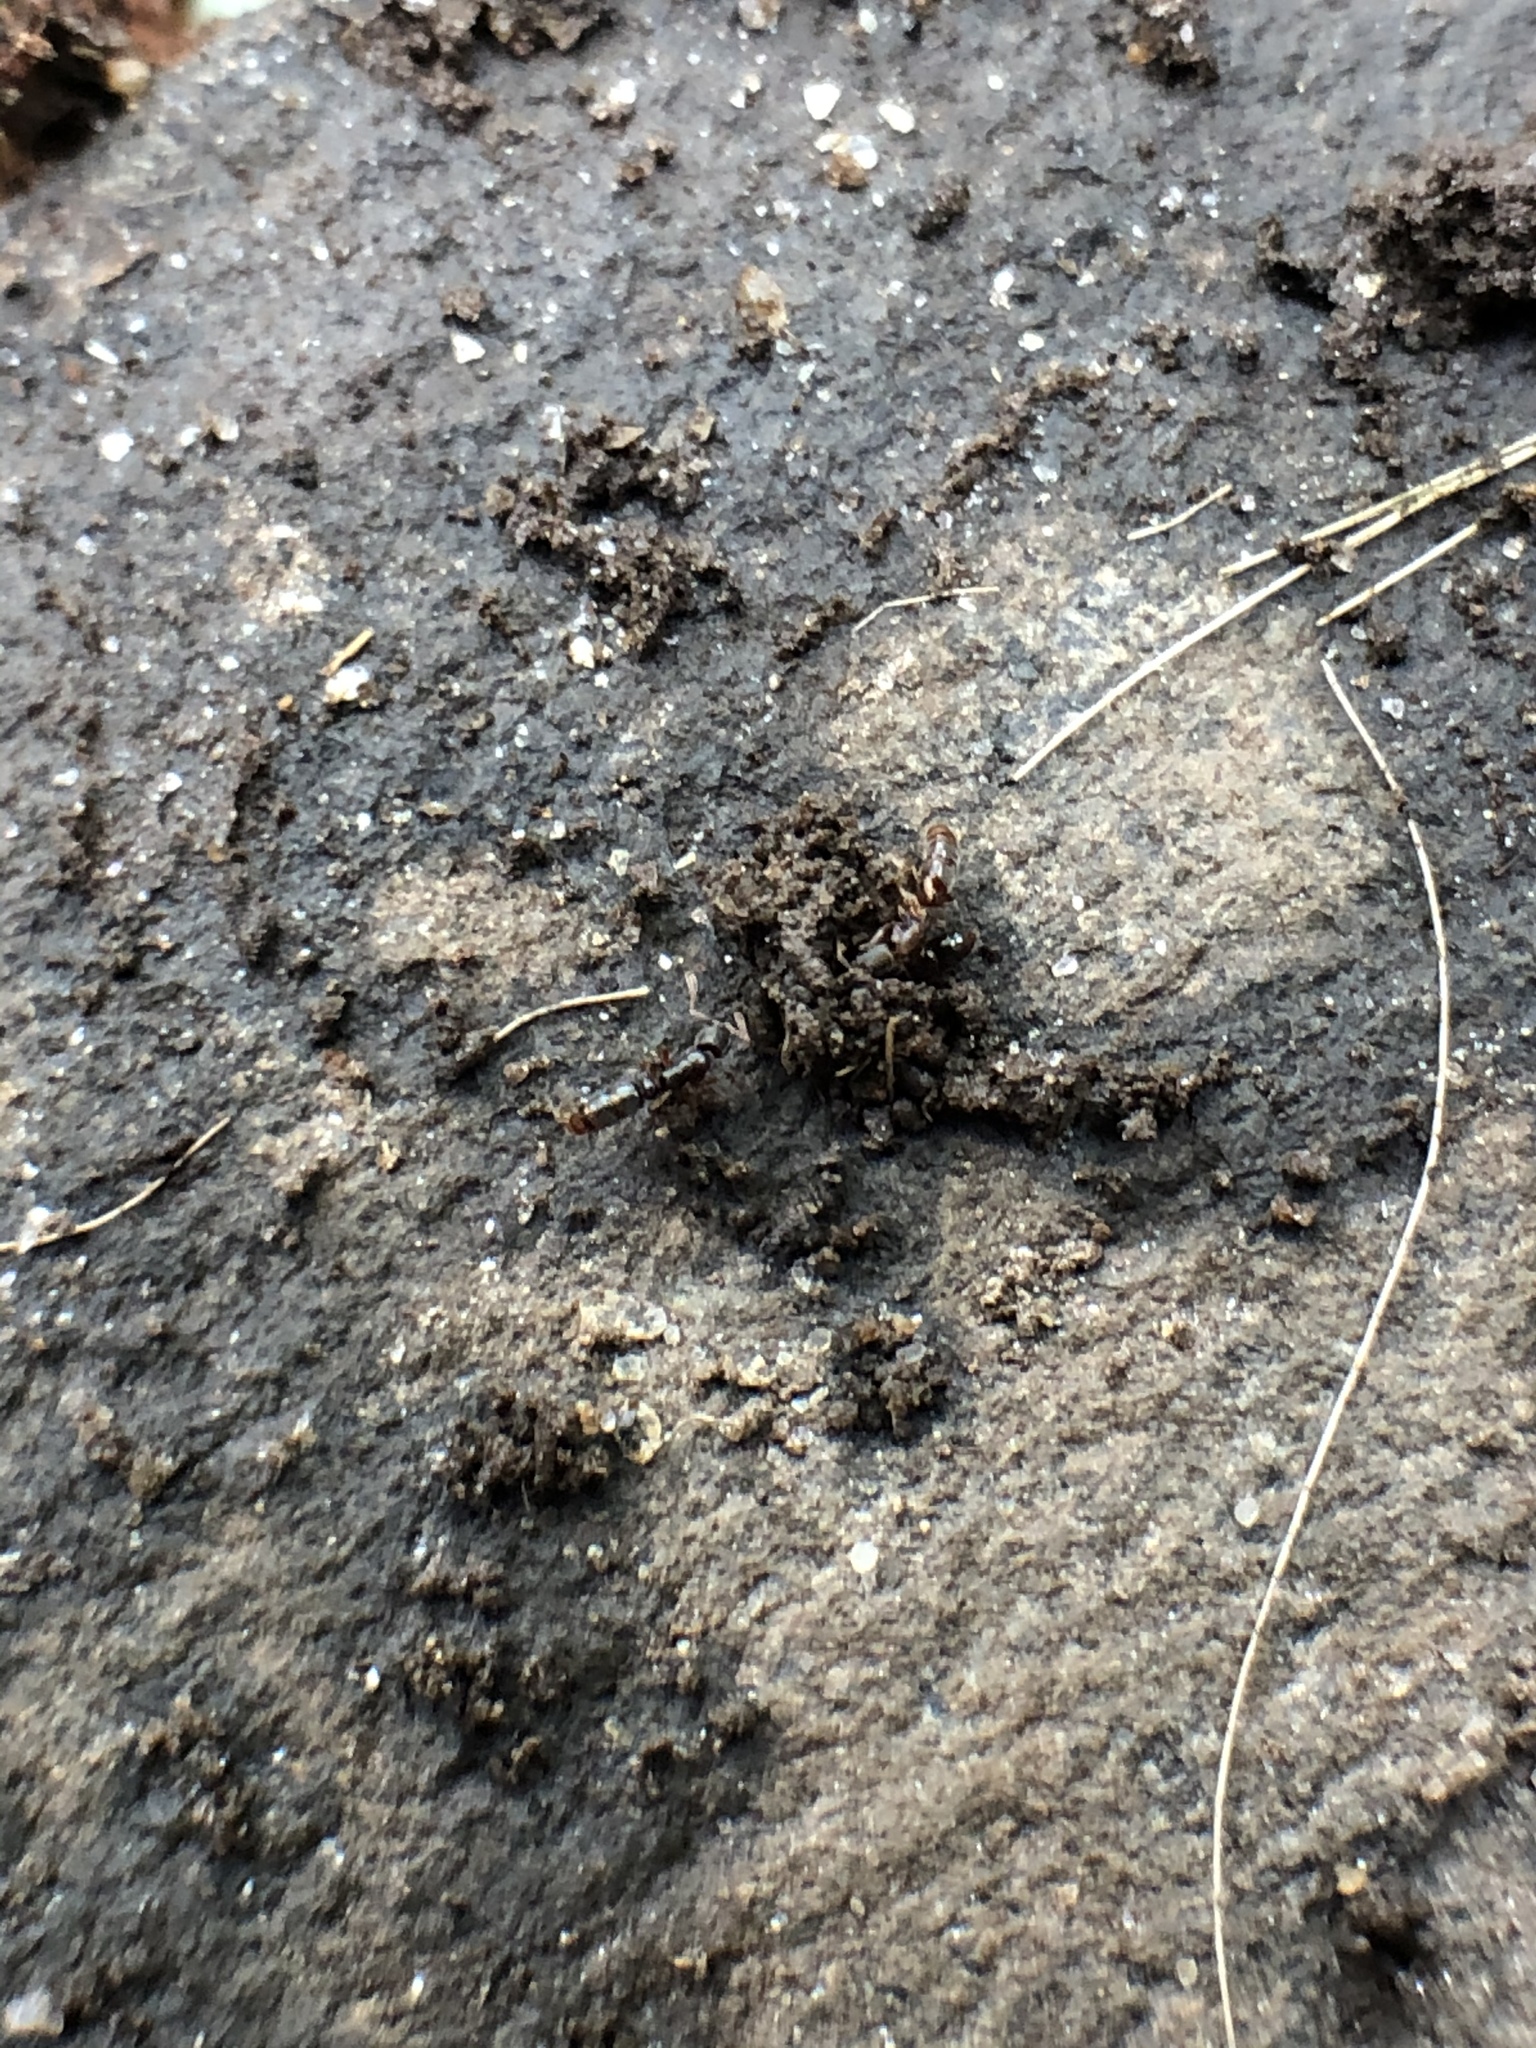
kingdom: Animalia
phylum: Arthropoda
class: Insecta
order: Hymenoptera
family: Formicidae
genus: Ponera
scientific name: Ponera pennsylvanica
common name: Pennsylvania ponera
